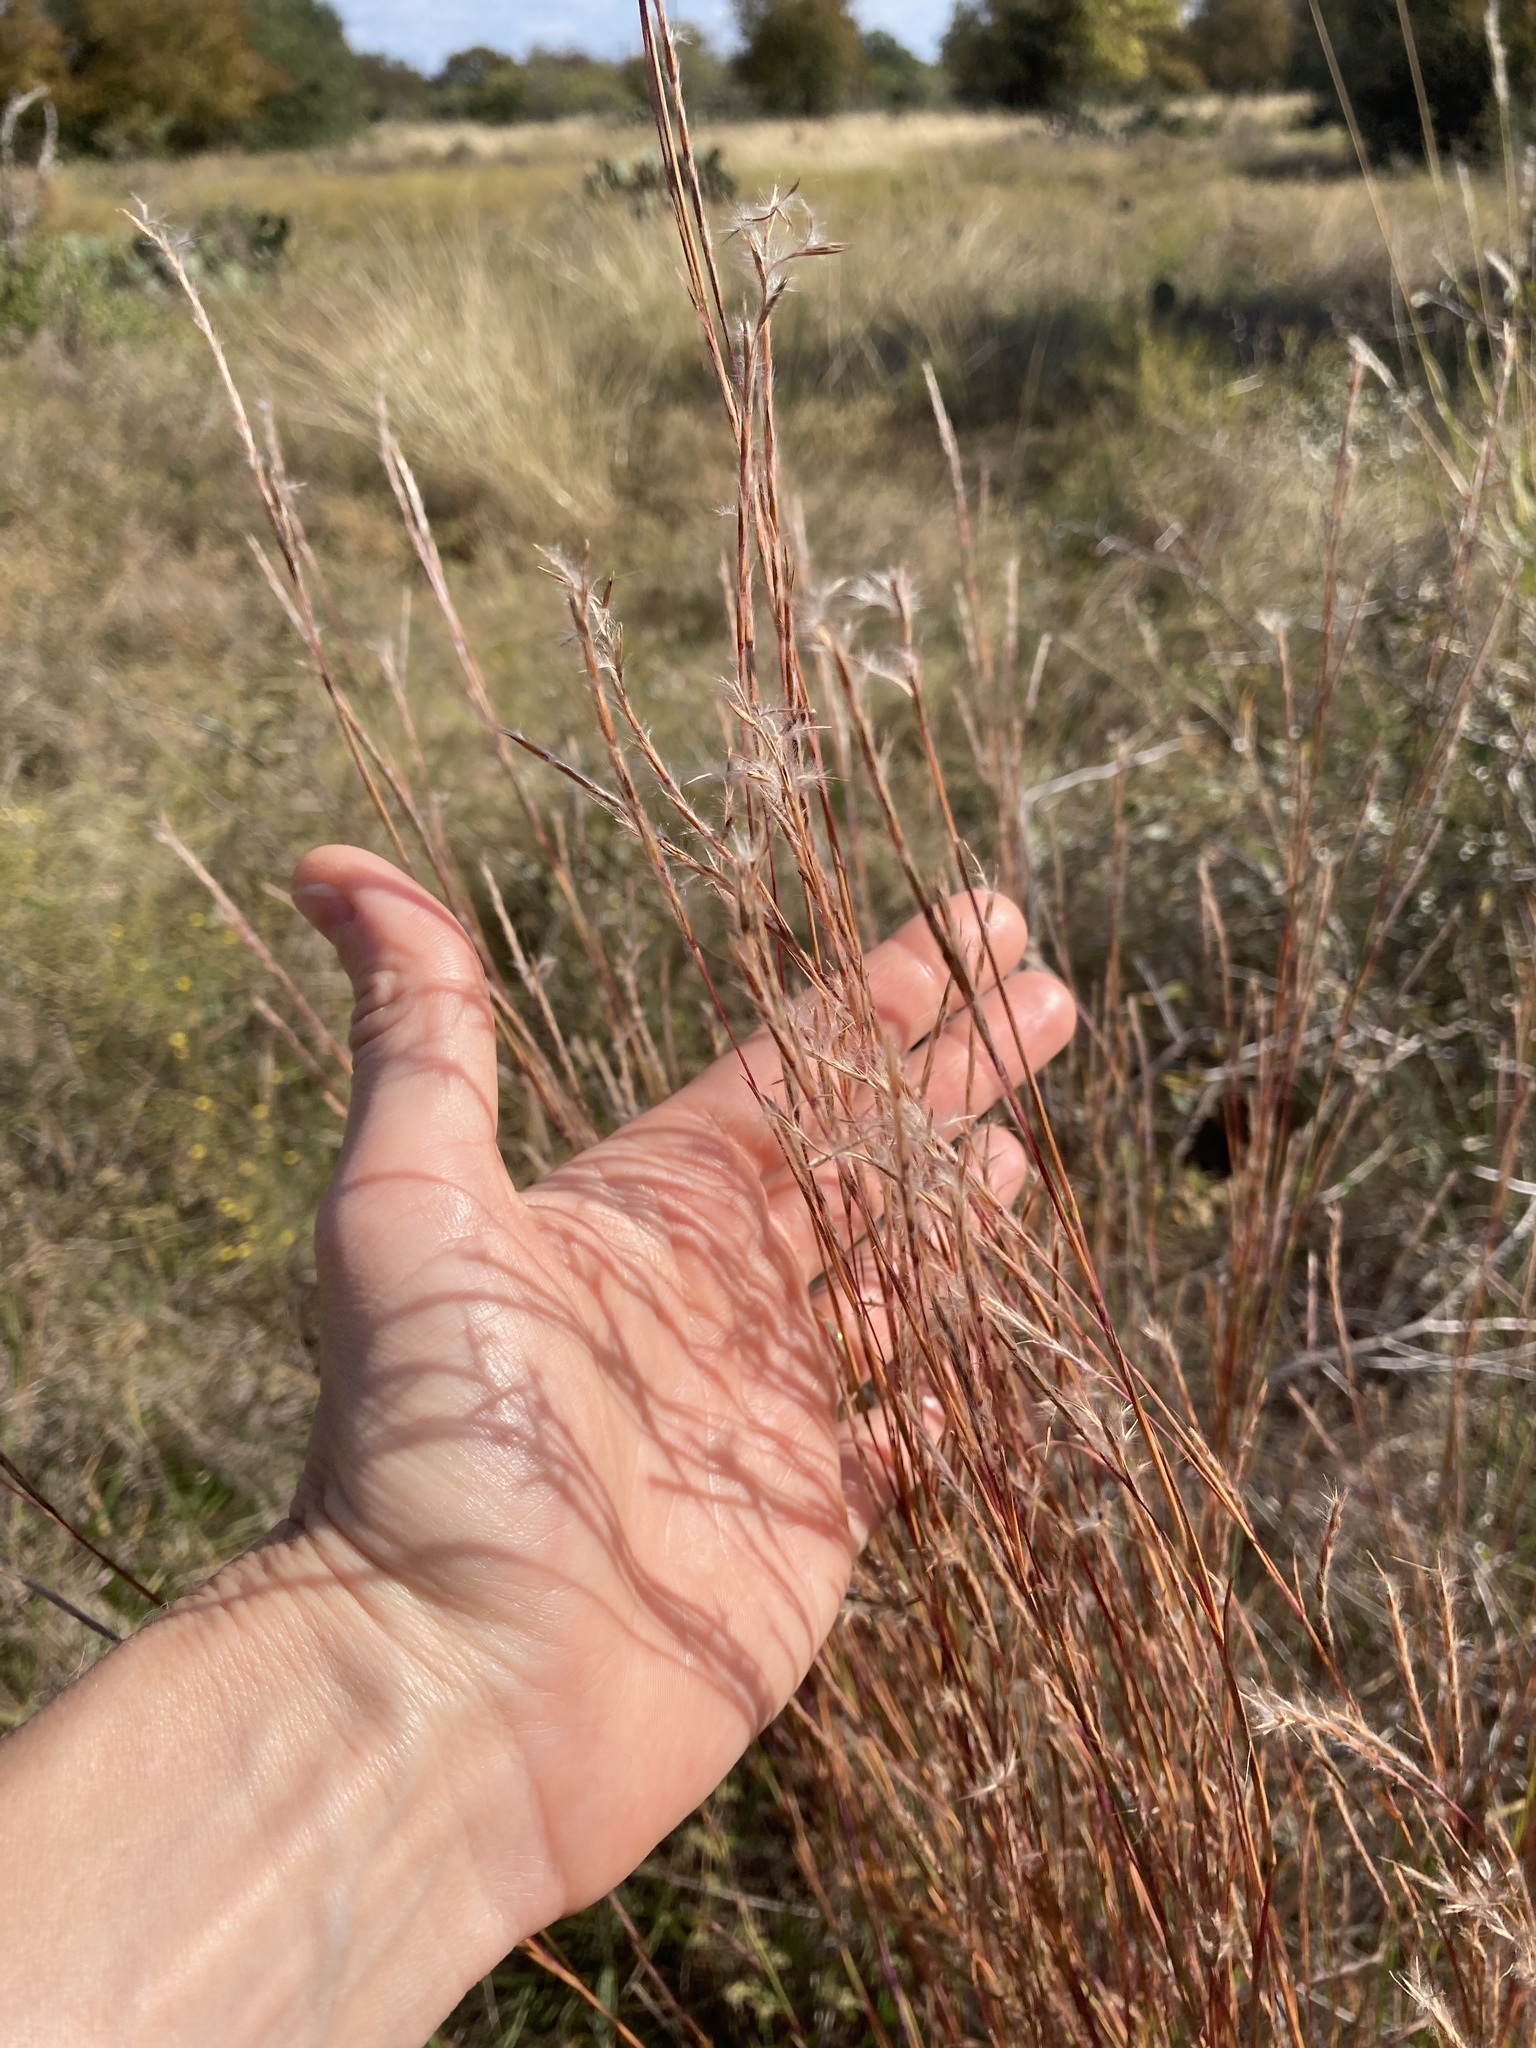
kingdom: Plantae
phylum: Tracheophyta
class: Liliopsida
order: Poales
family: Poaceae
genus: Schizachyrium
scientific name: Schizachyrium scoparium
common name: Little bluestem
